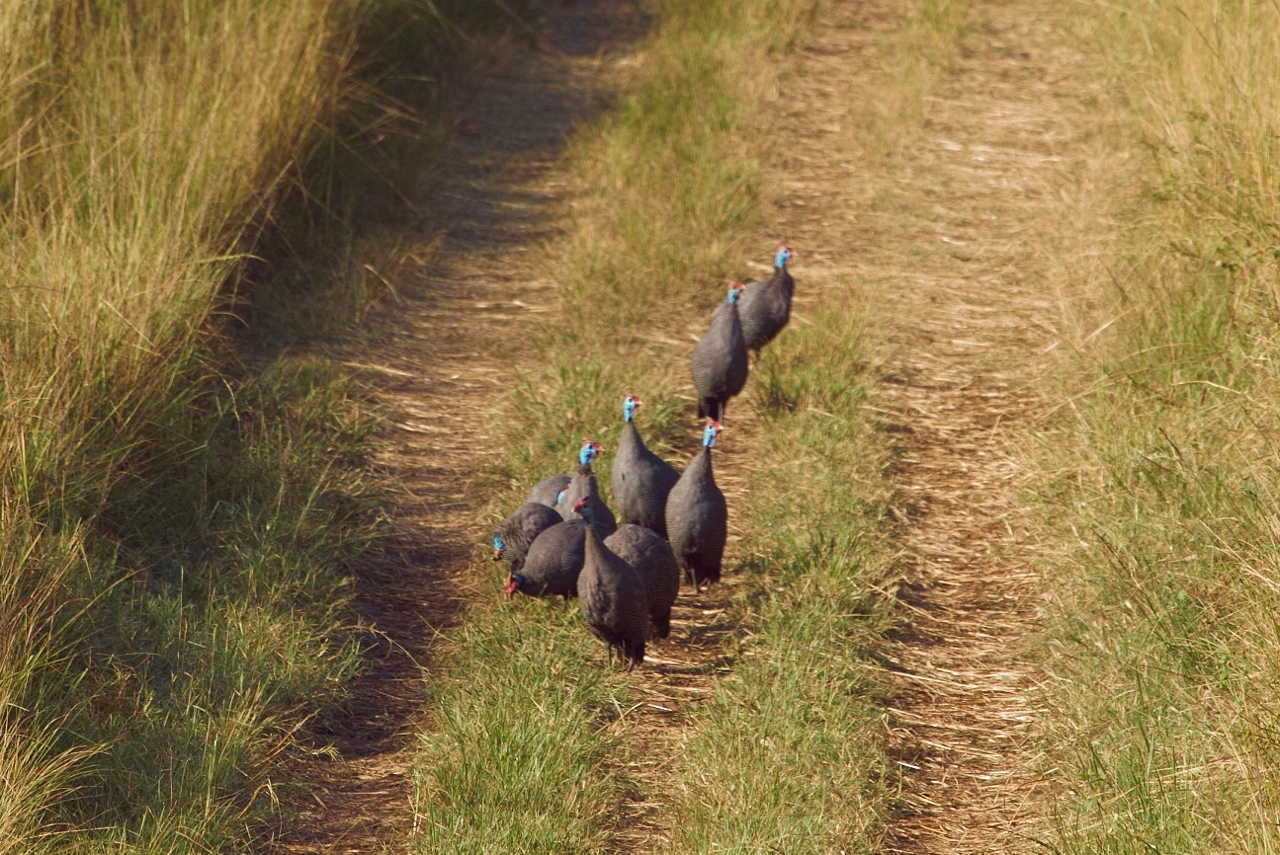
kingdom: Animalia
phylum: Chordata
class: Aves
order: Galliformes
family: Numididae
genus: Numida
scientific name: Numida meleagris
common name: Helmeted guineafowl
